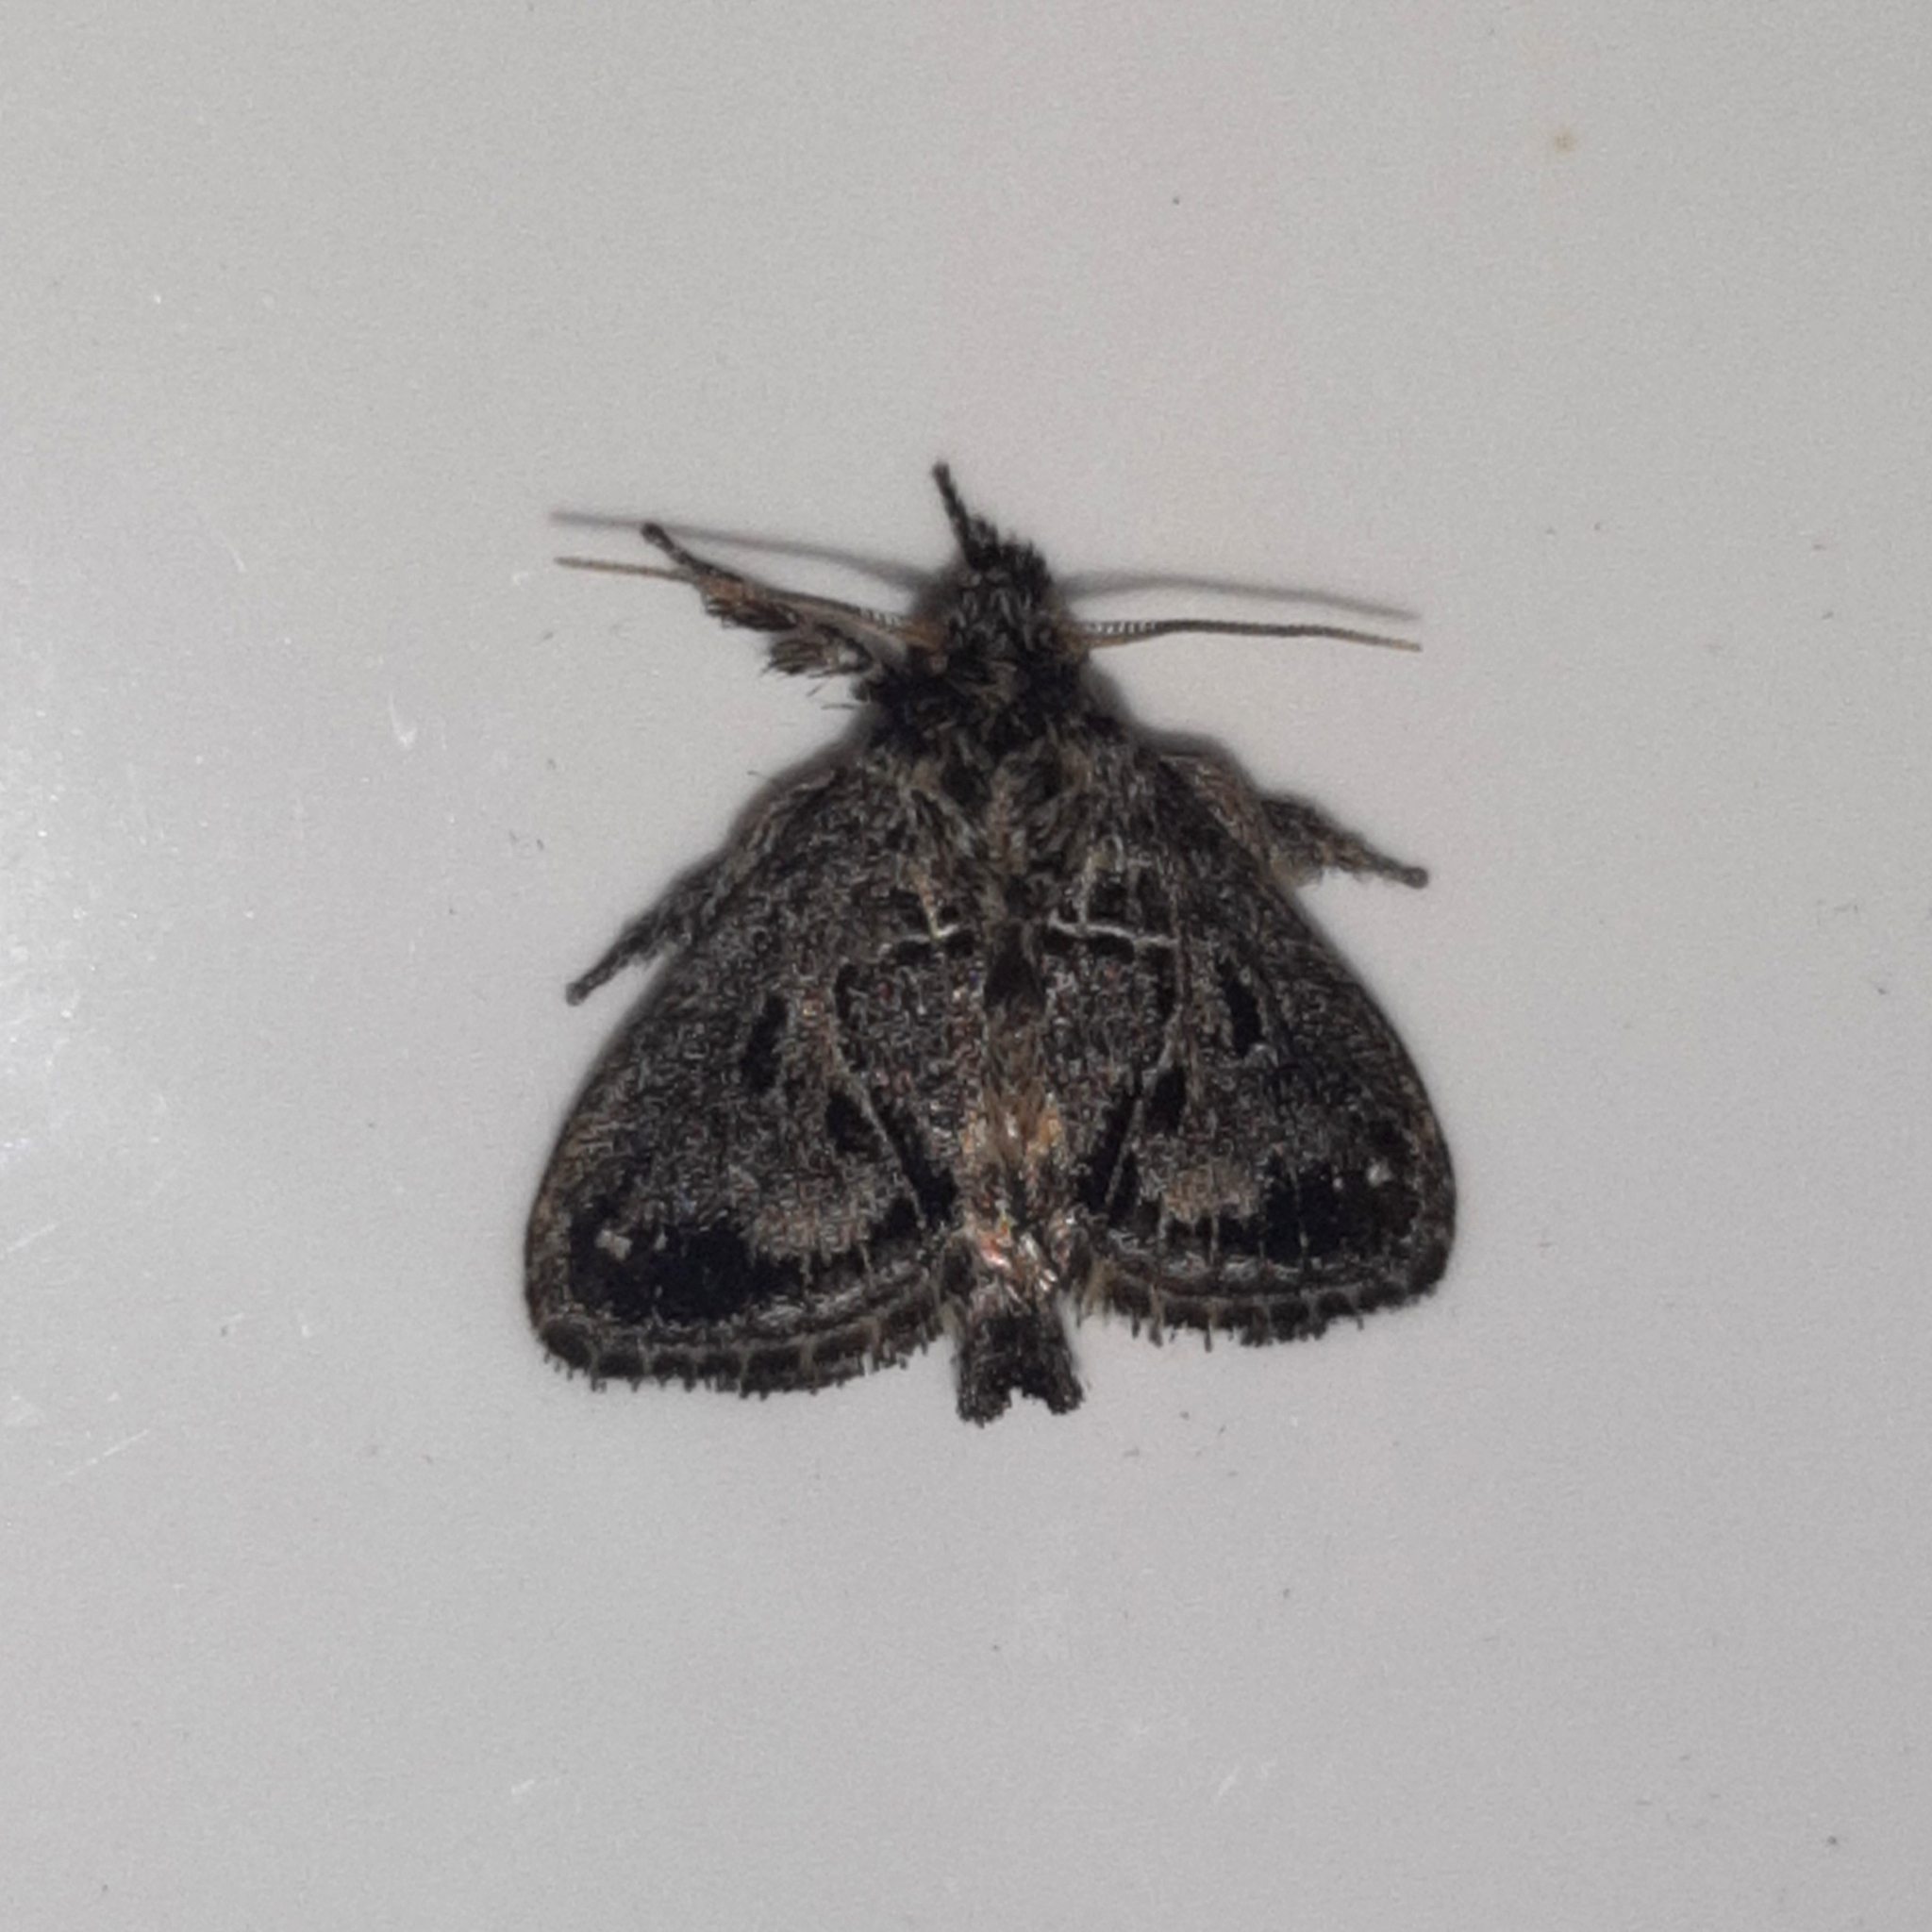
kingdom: Animalia
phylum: Arthropoda
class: Insecta
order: Lepidoptera
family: Limacodidae
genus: Euclea
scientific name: Euclea costaricana
